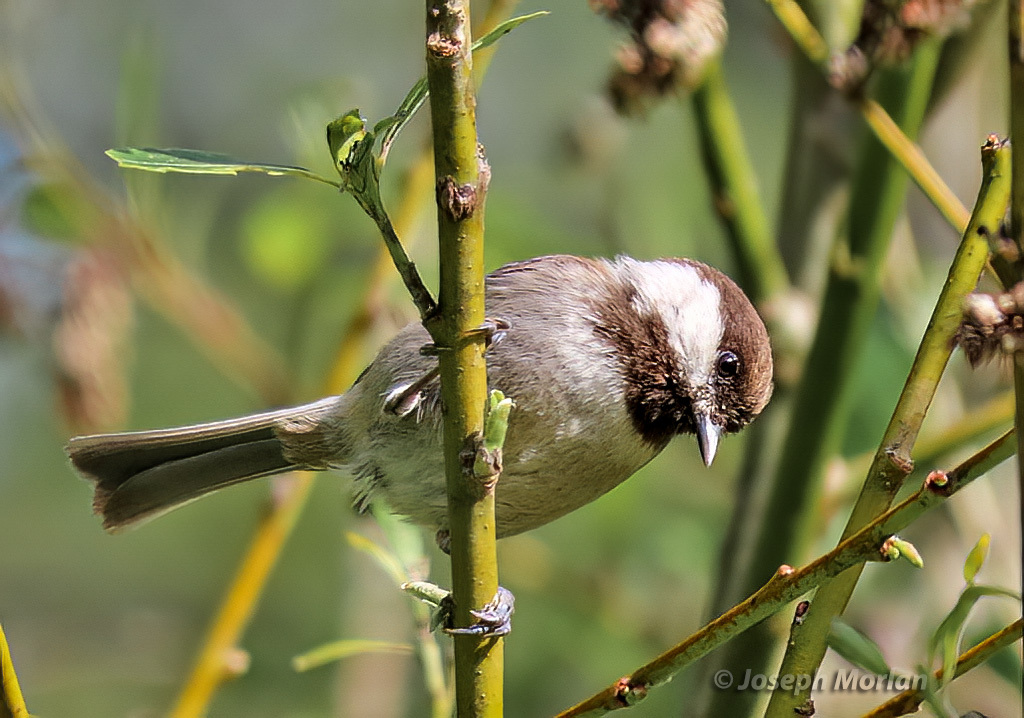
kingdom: Animalia
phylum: Chordata
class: Aves
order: Passeriformes
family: Paridae
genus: Poecile
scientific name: Poecile rufescens
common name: Chestnut-backed chickadee
